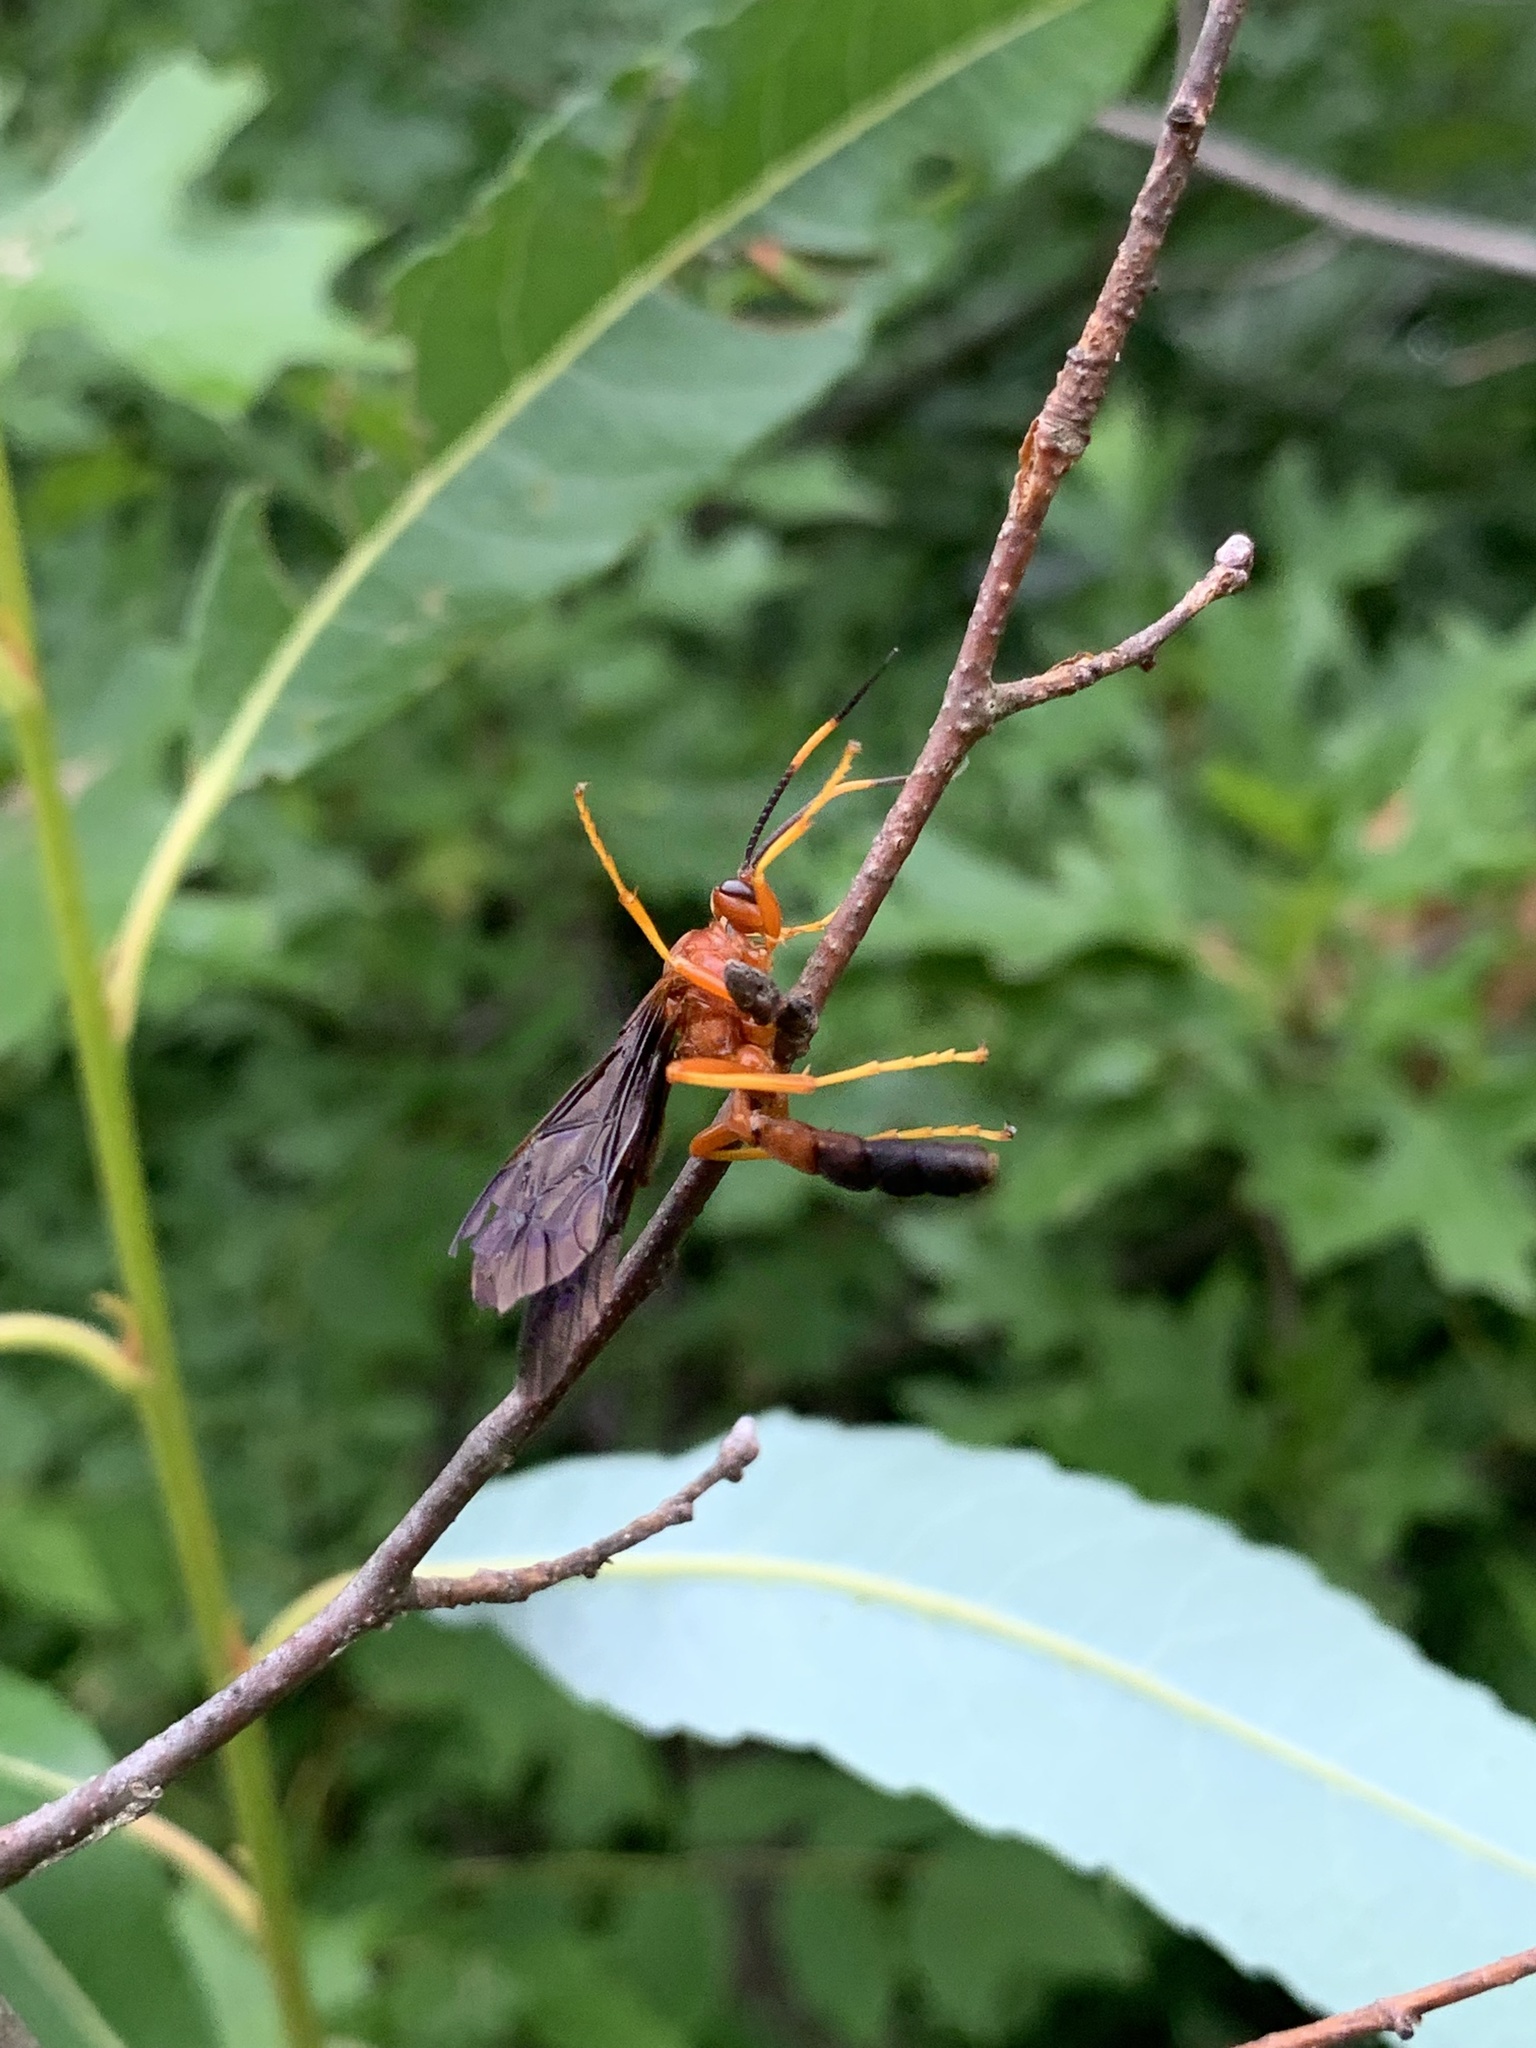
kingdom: Animalia
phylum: Arthropoda
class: Insecta
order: Hymenoptera
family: Ichneumonidae
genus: Tmetogaster
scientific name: Tmetogaster nubilipennis
